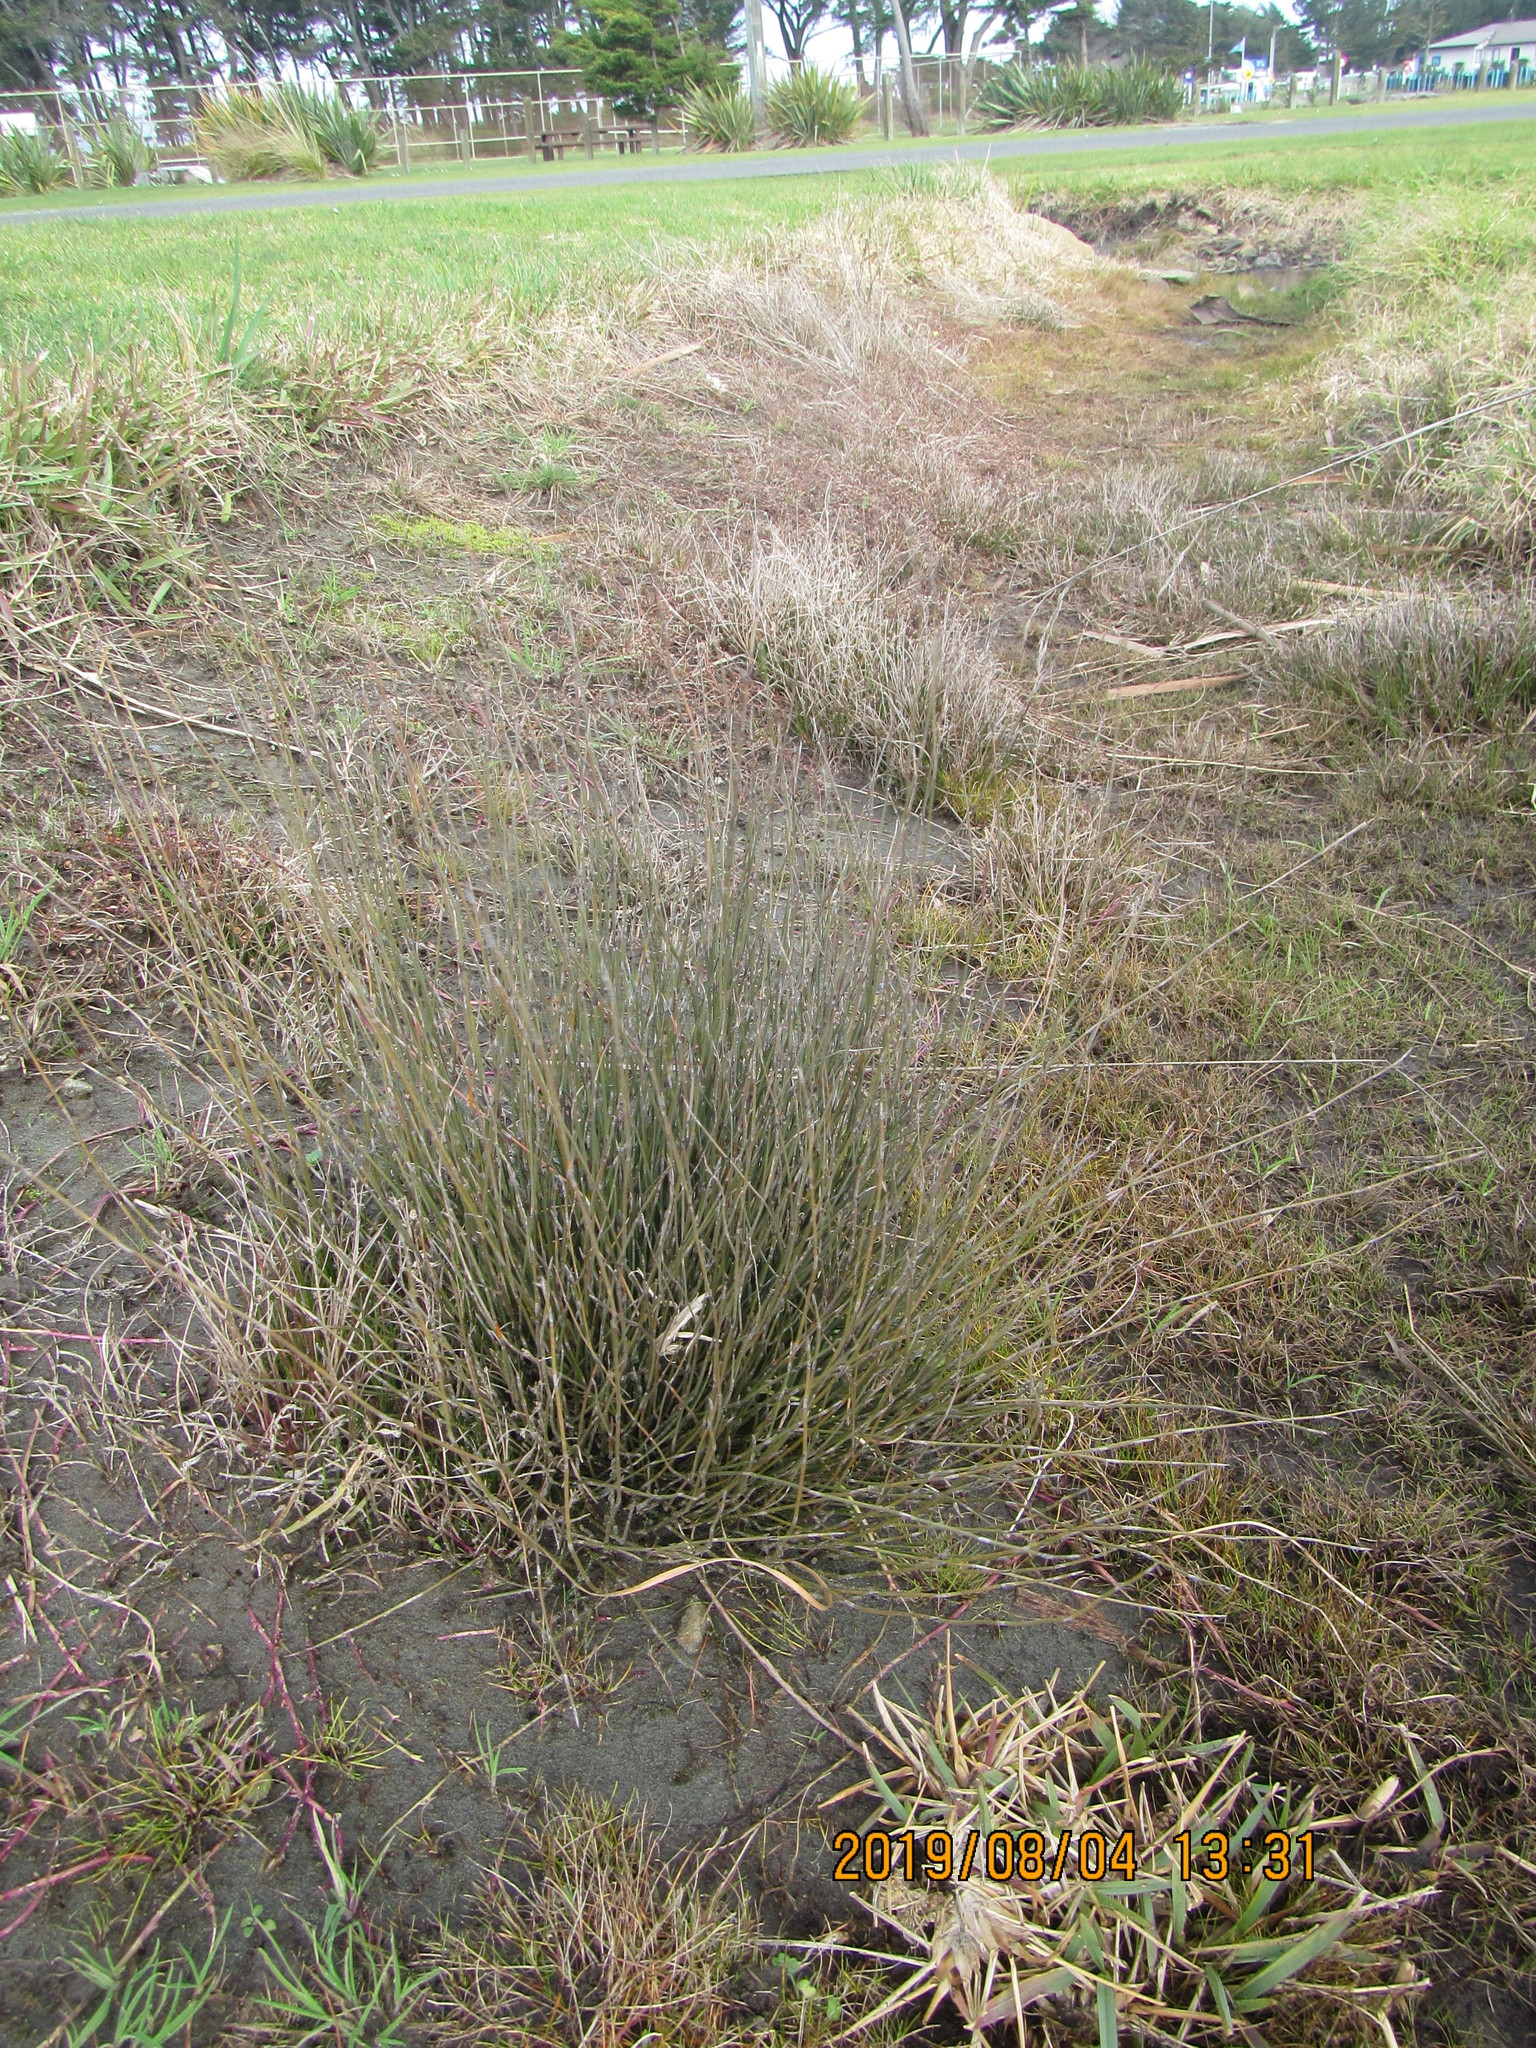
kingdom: Plantae
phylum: Tracheophyta
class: Liliopsida
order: Poales
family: Restionaceae
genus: Apodasmia
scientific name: Apodasmia similis
